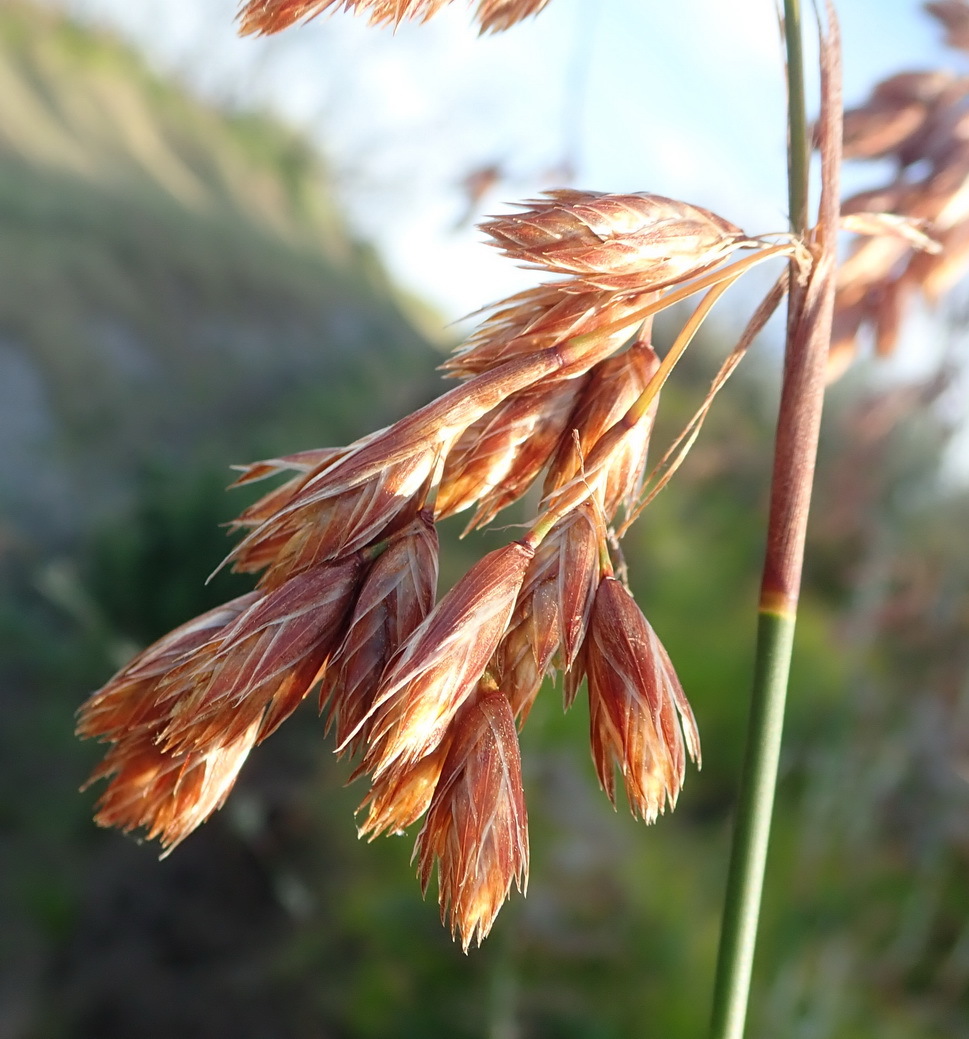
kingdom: Plantae
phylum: Tracheophyta
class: Liliopsida
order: Poales
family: Restionaceae
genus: Thamnochortus
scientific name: Thamnochortus glaber
